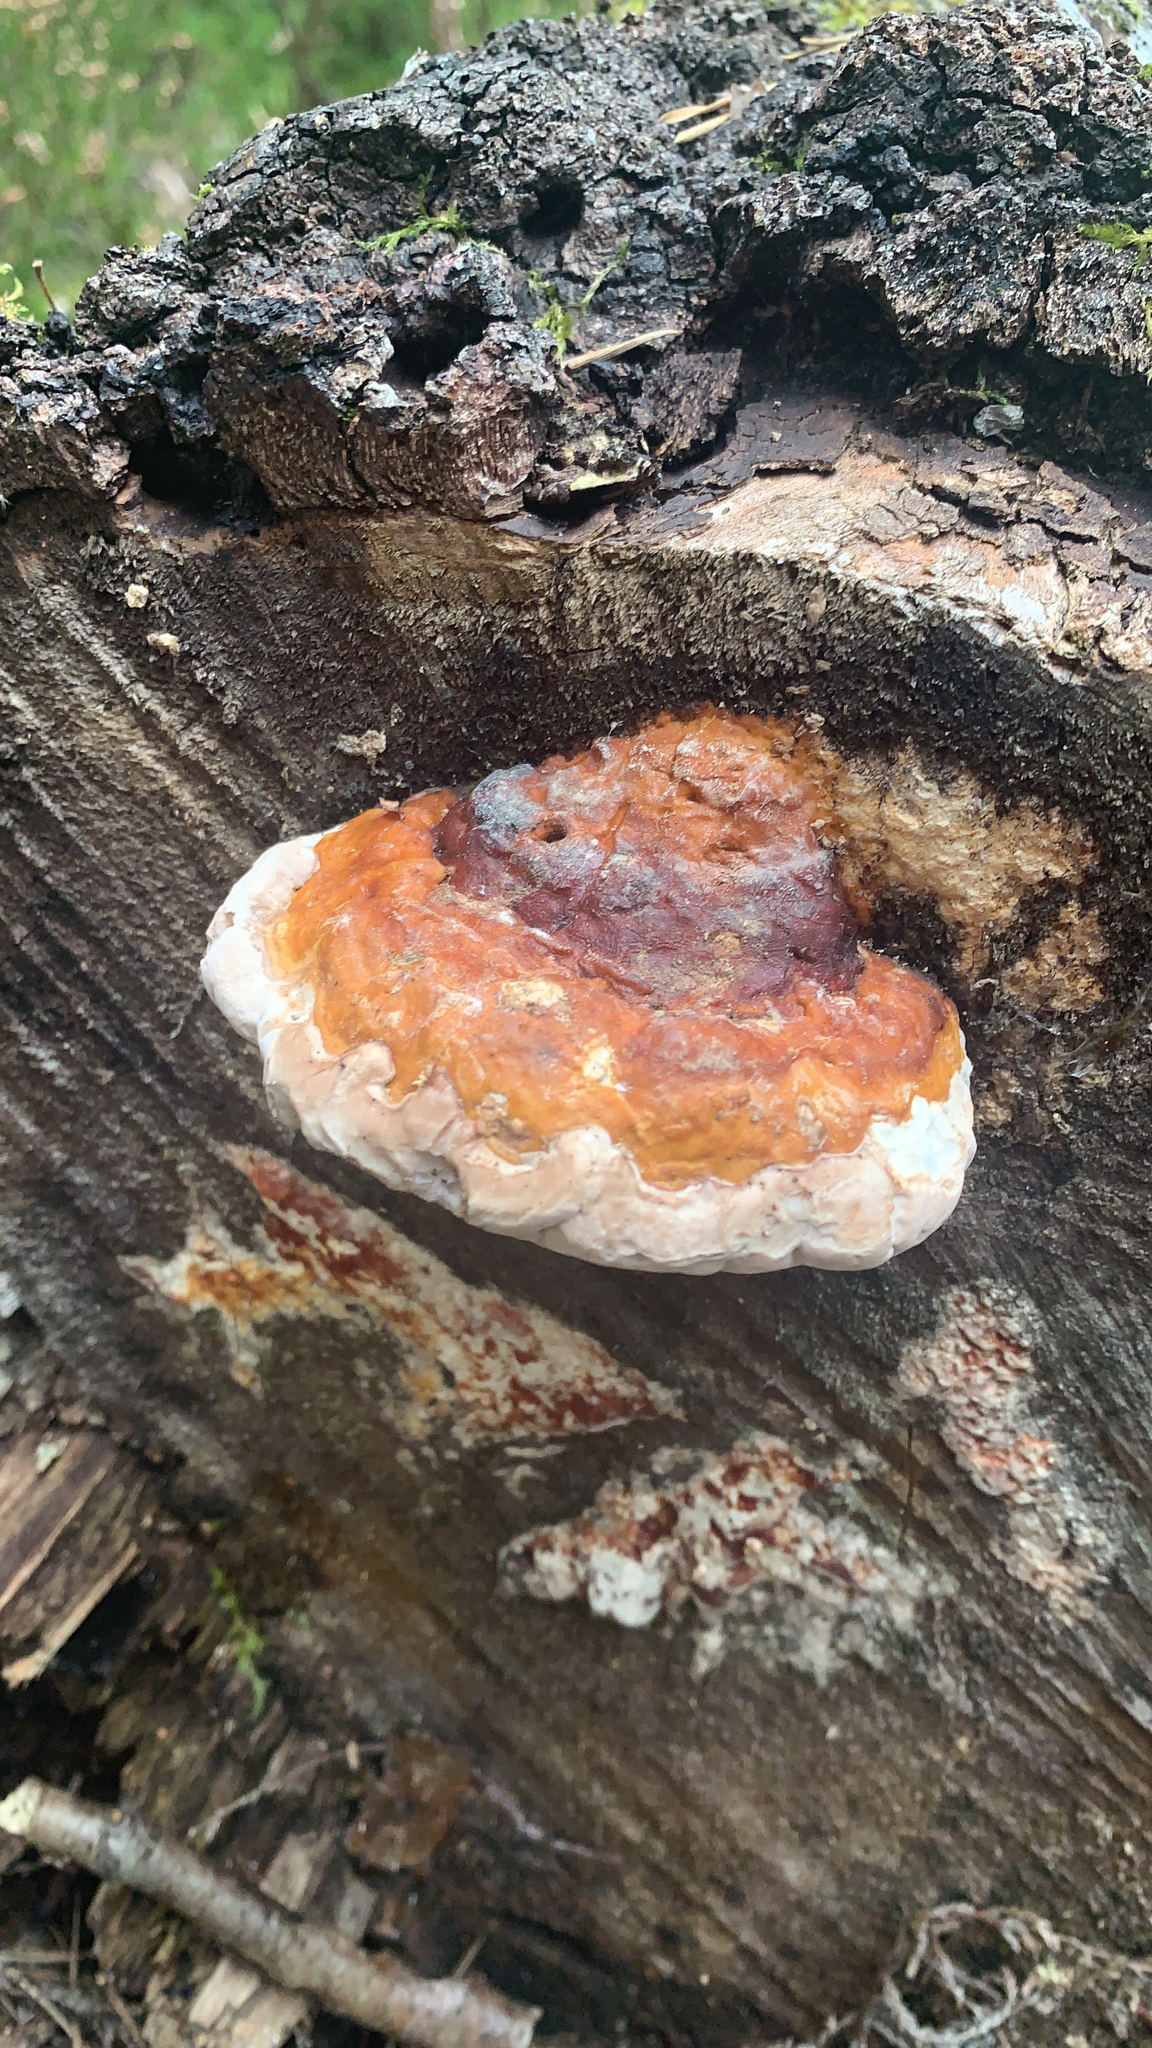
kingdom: Fungi
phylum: Basidiomycota
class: Agaricomycetes
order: Polyporales
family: Fomitopsidaceae
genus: Fomitopsis
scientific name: Fomitopsis pinicola
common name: Red-belted bracket
